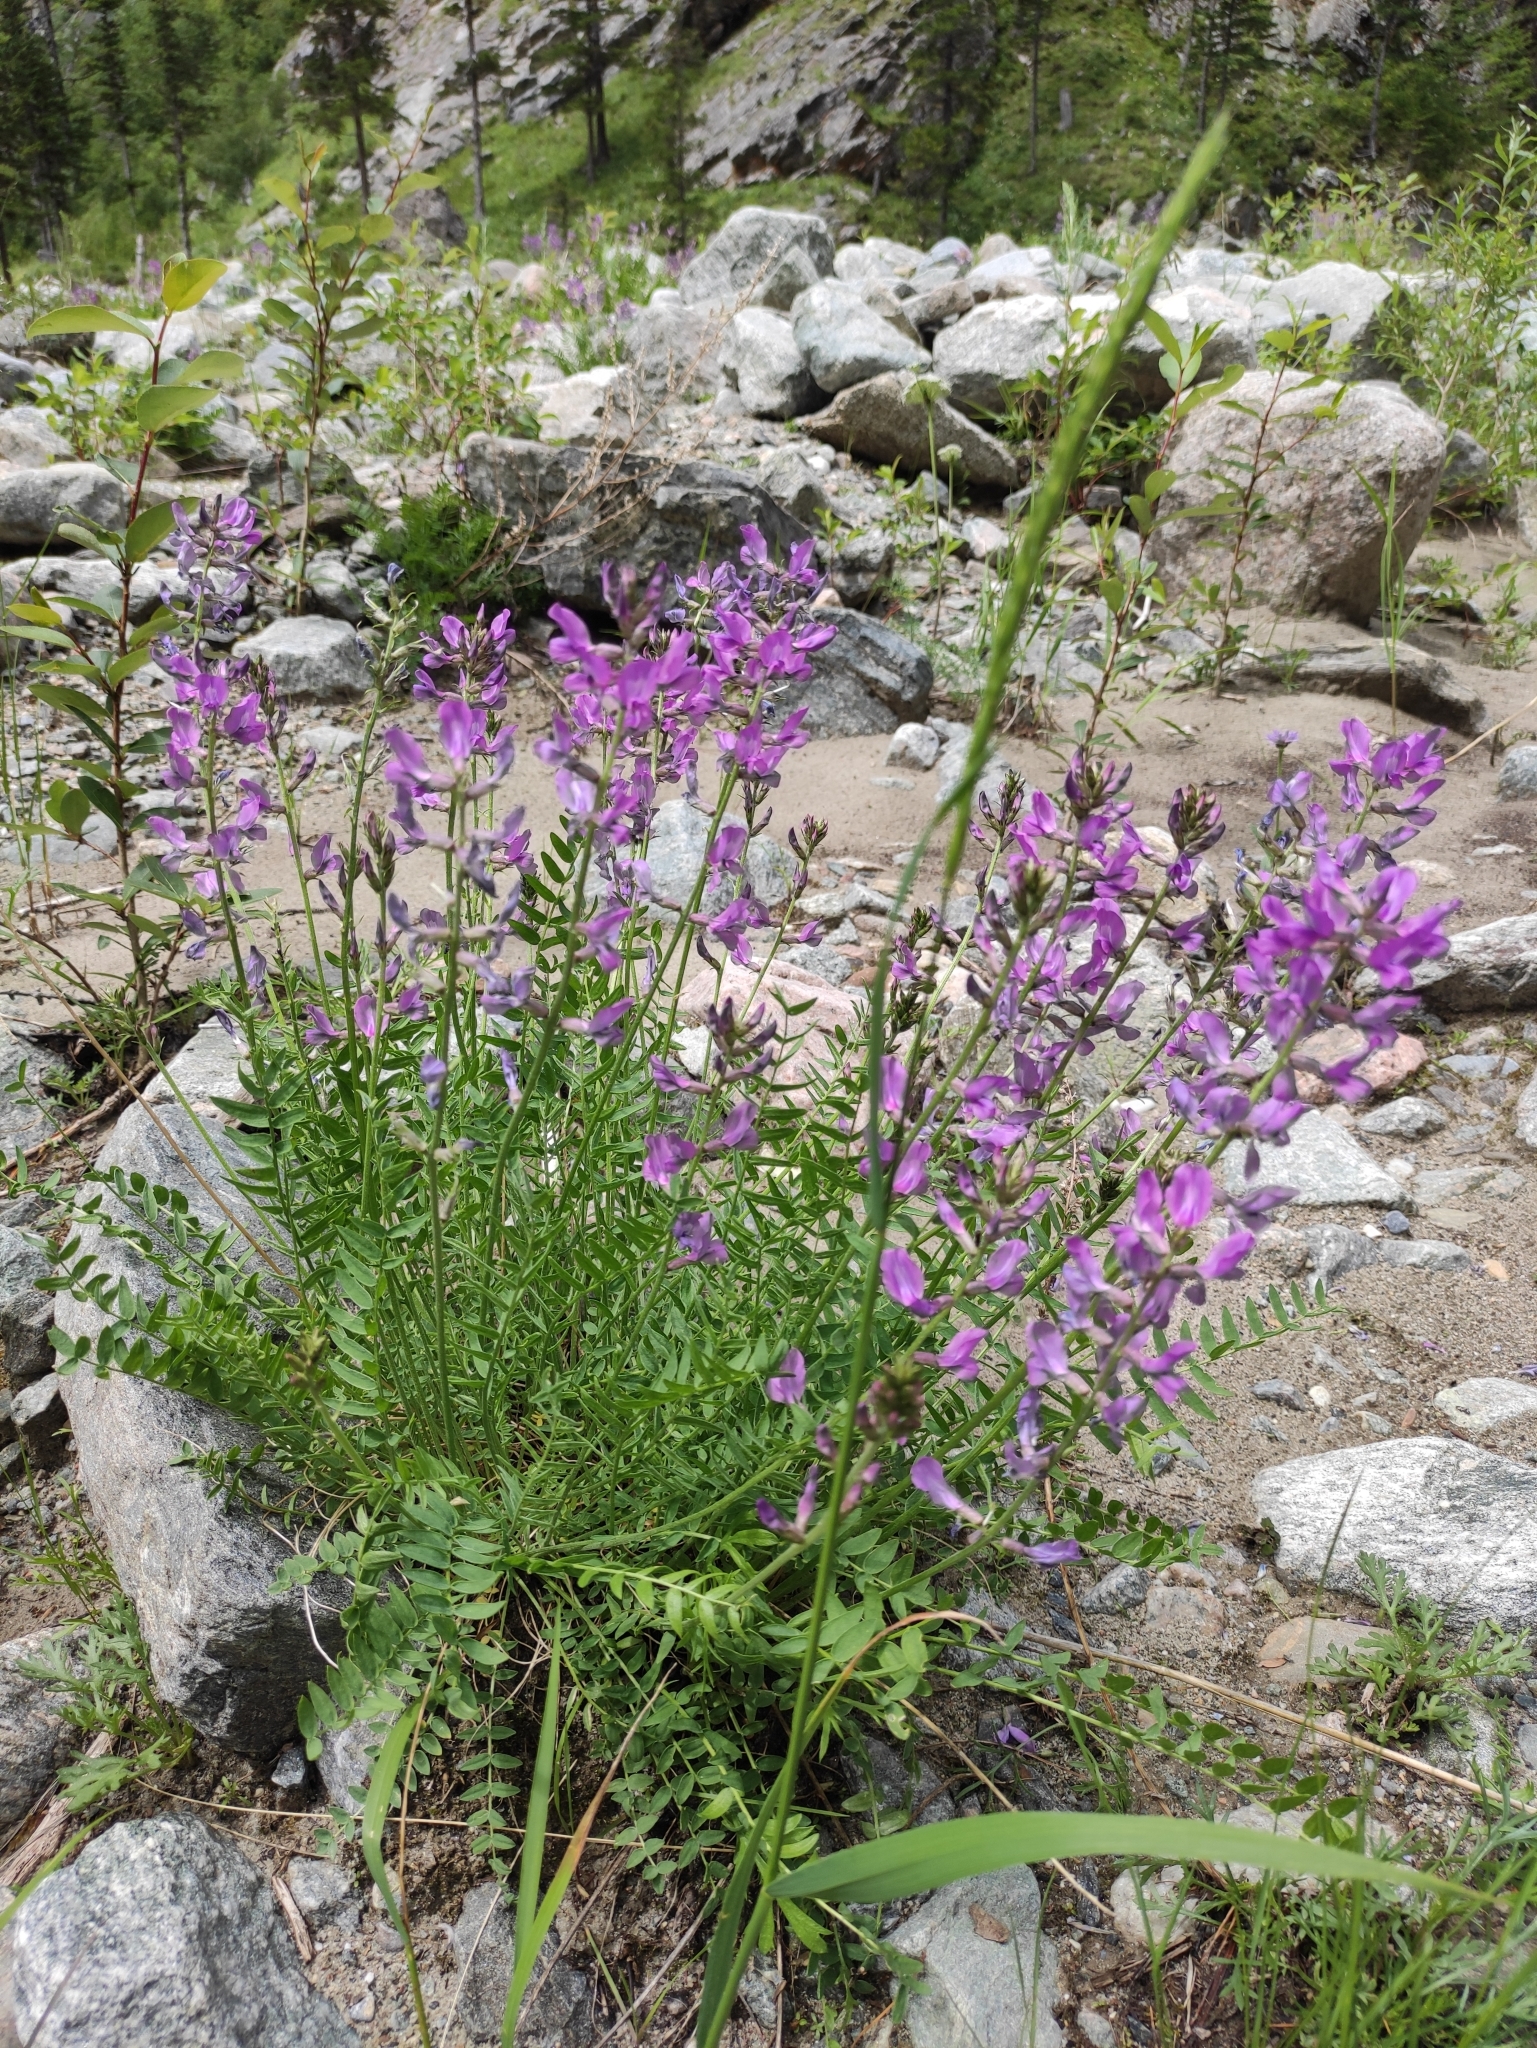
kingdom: Plantae
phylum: Tracheophyta
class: Magnoliopsida
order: Fabales
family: Fabaceae
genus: Oxytropis
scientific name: Oxytropis longirostra
